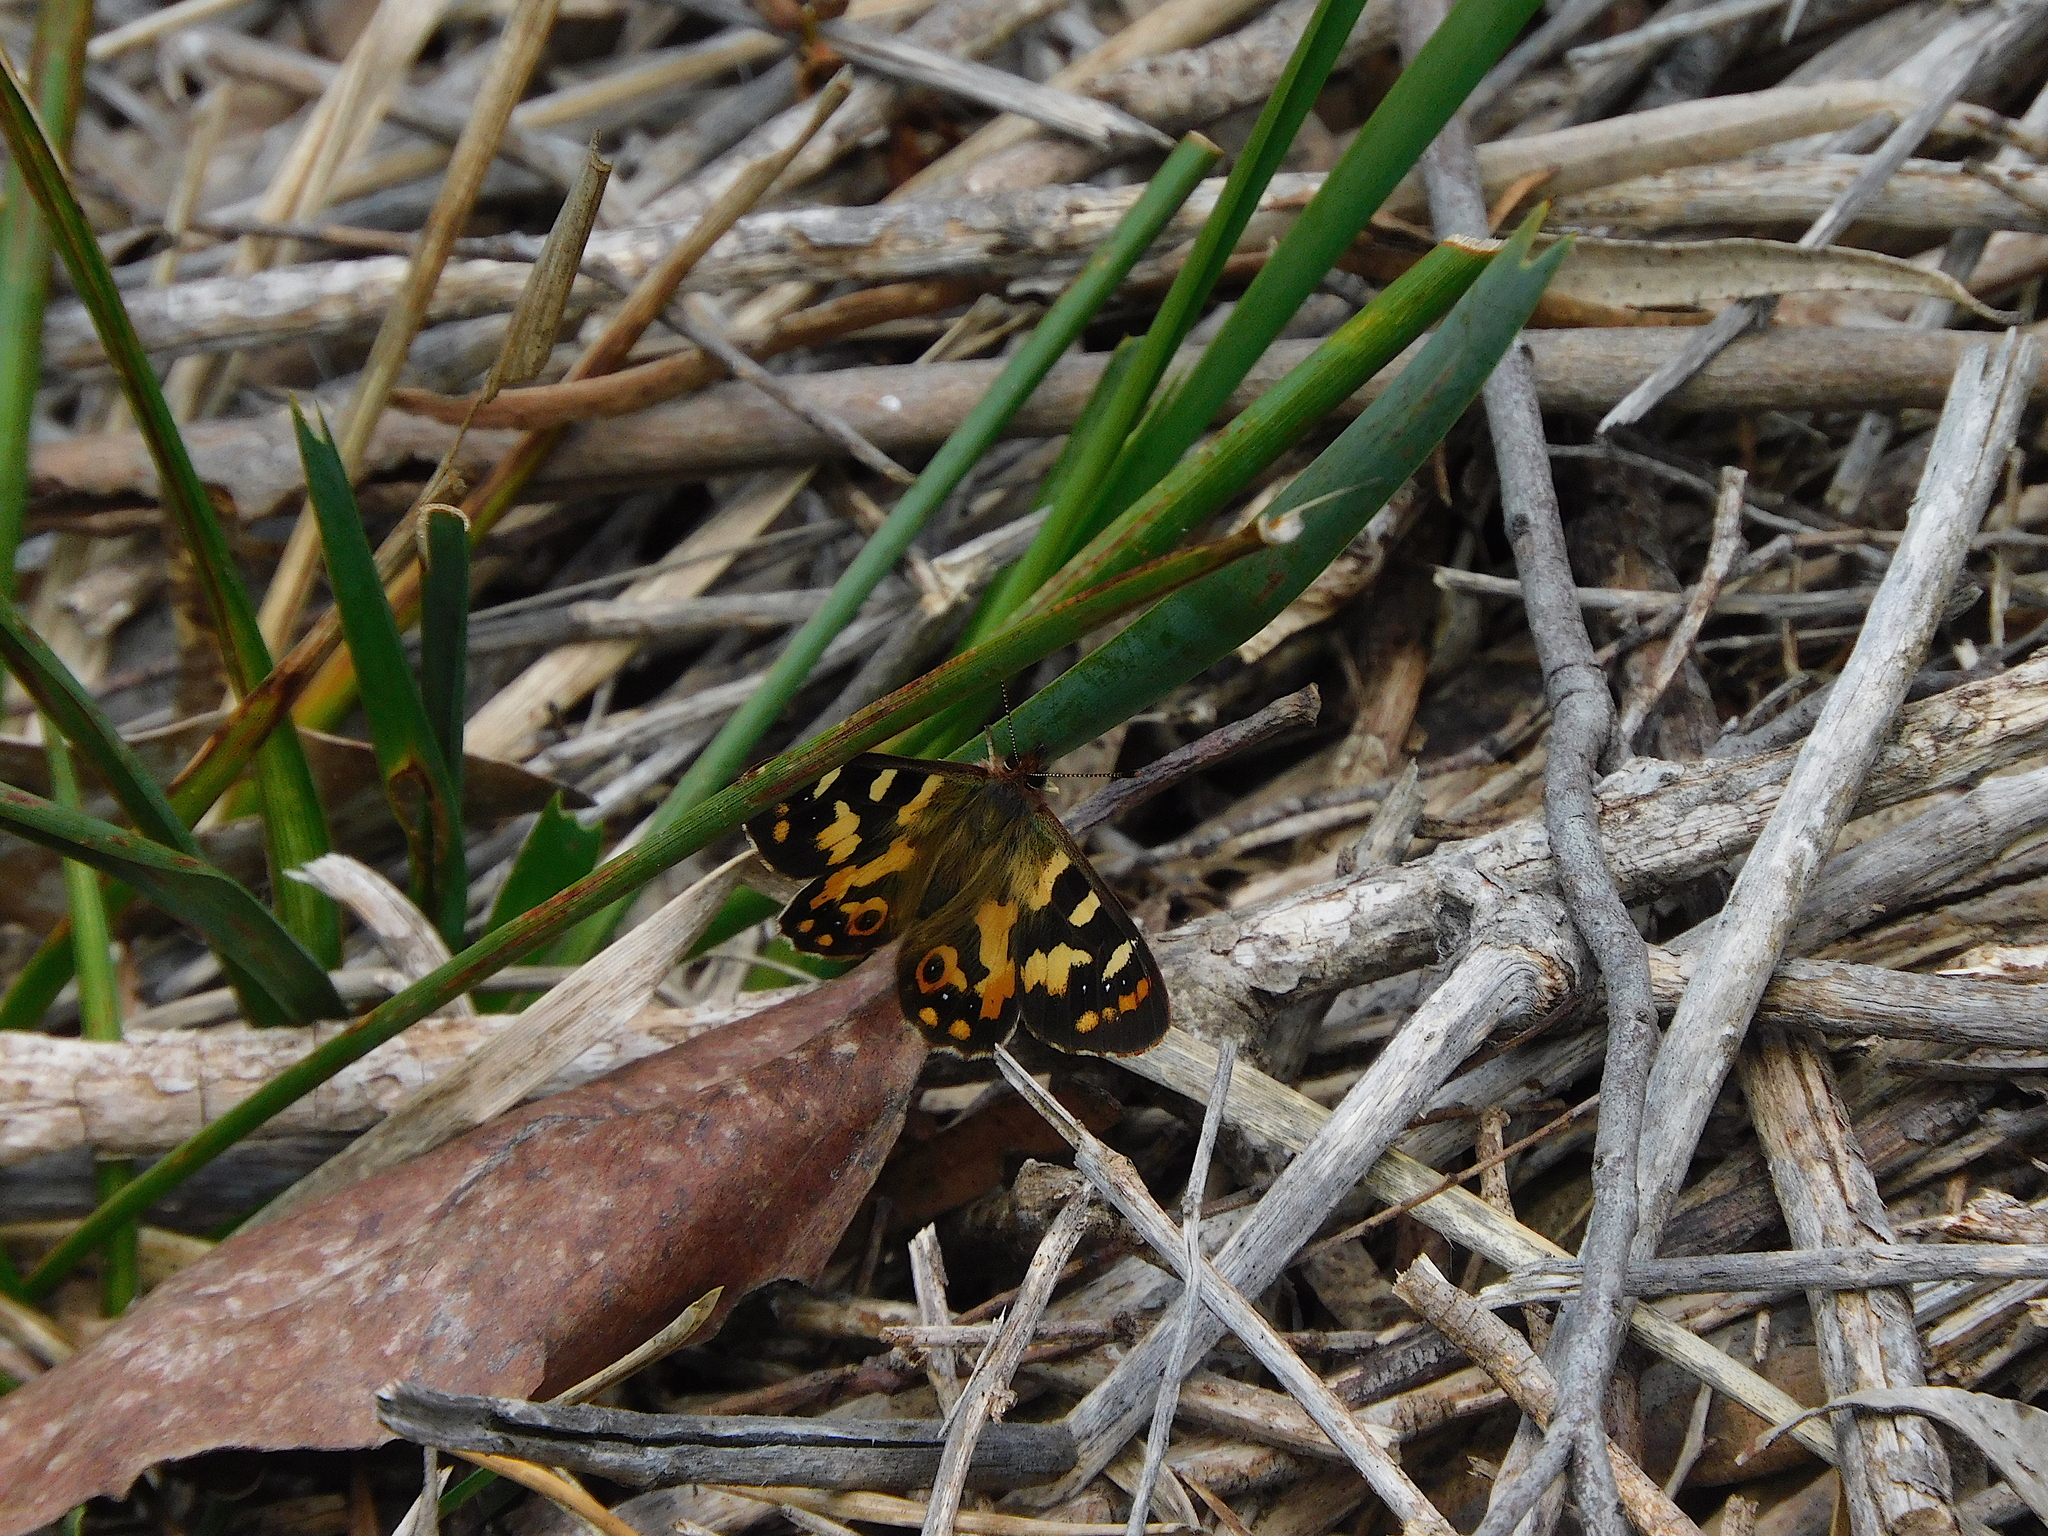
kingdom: Animalia
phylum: Arthropoda
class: Insecta
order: Lepidoptera
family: Nymphalidae
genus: Argynnina
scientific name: Argynnina hobartia
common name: Hobart brown
